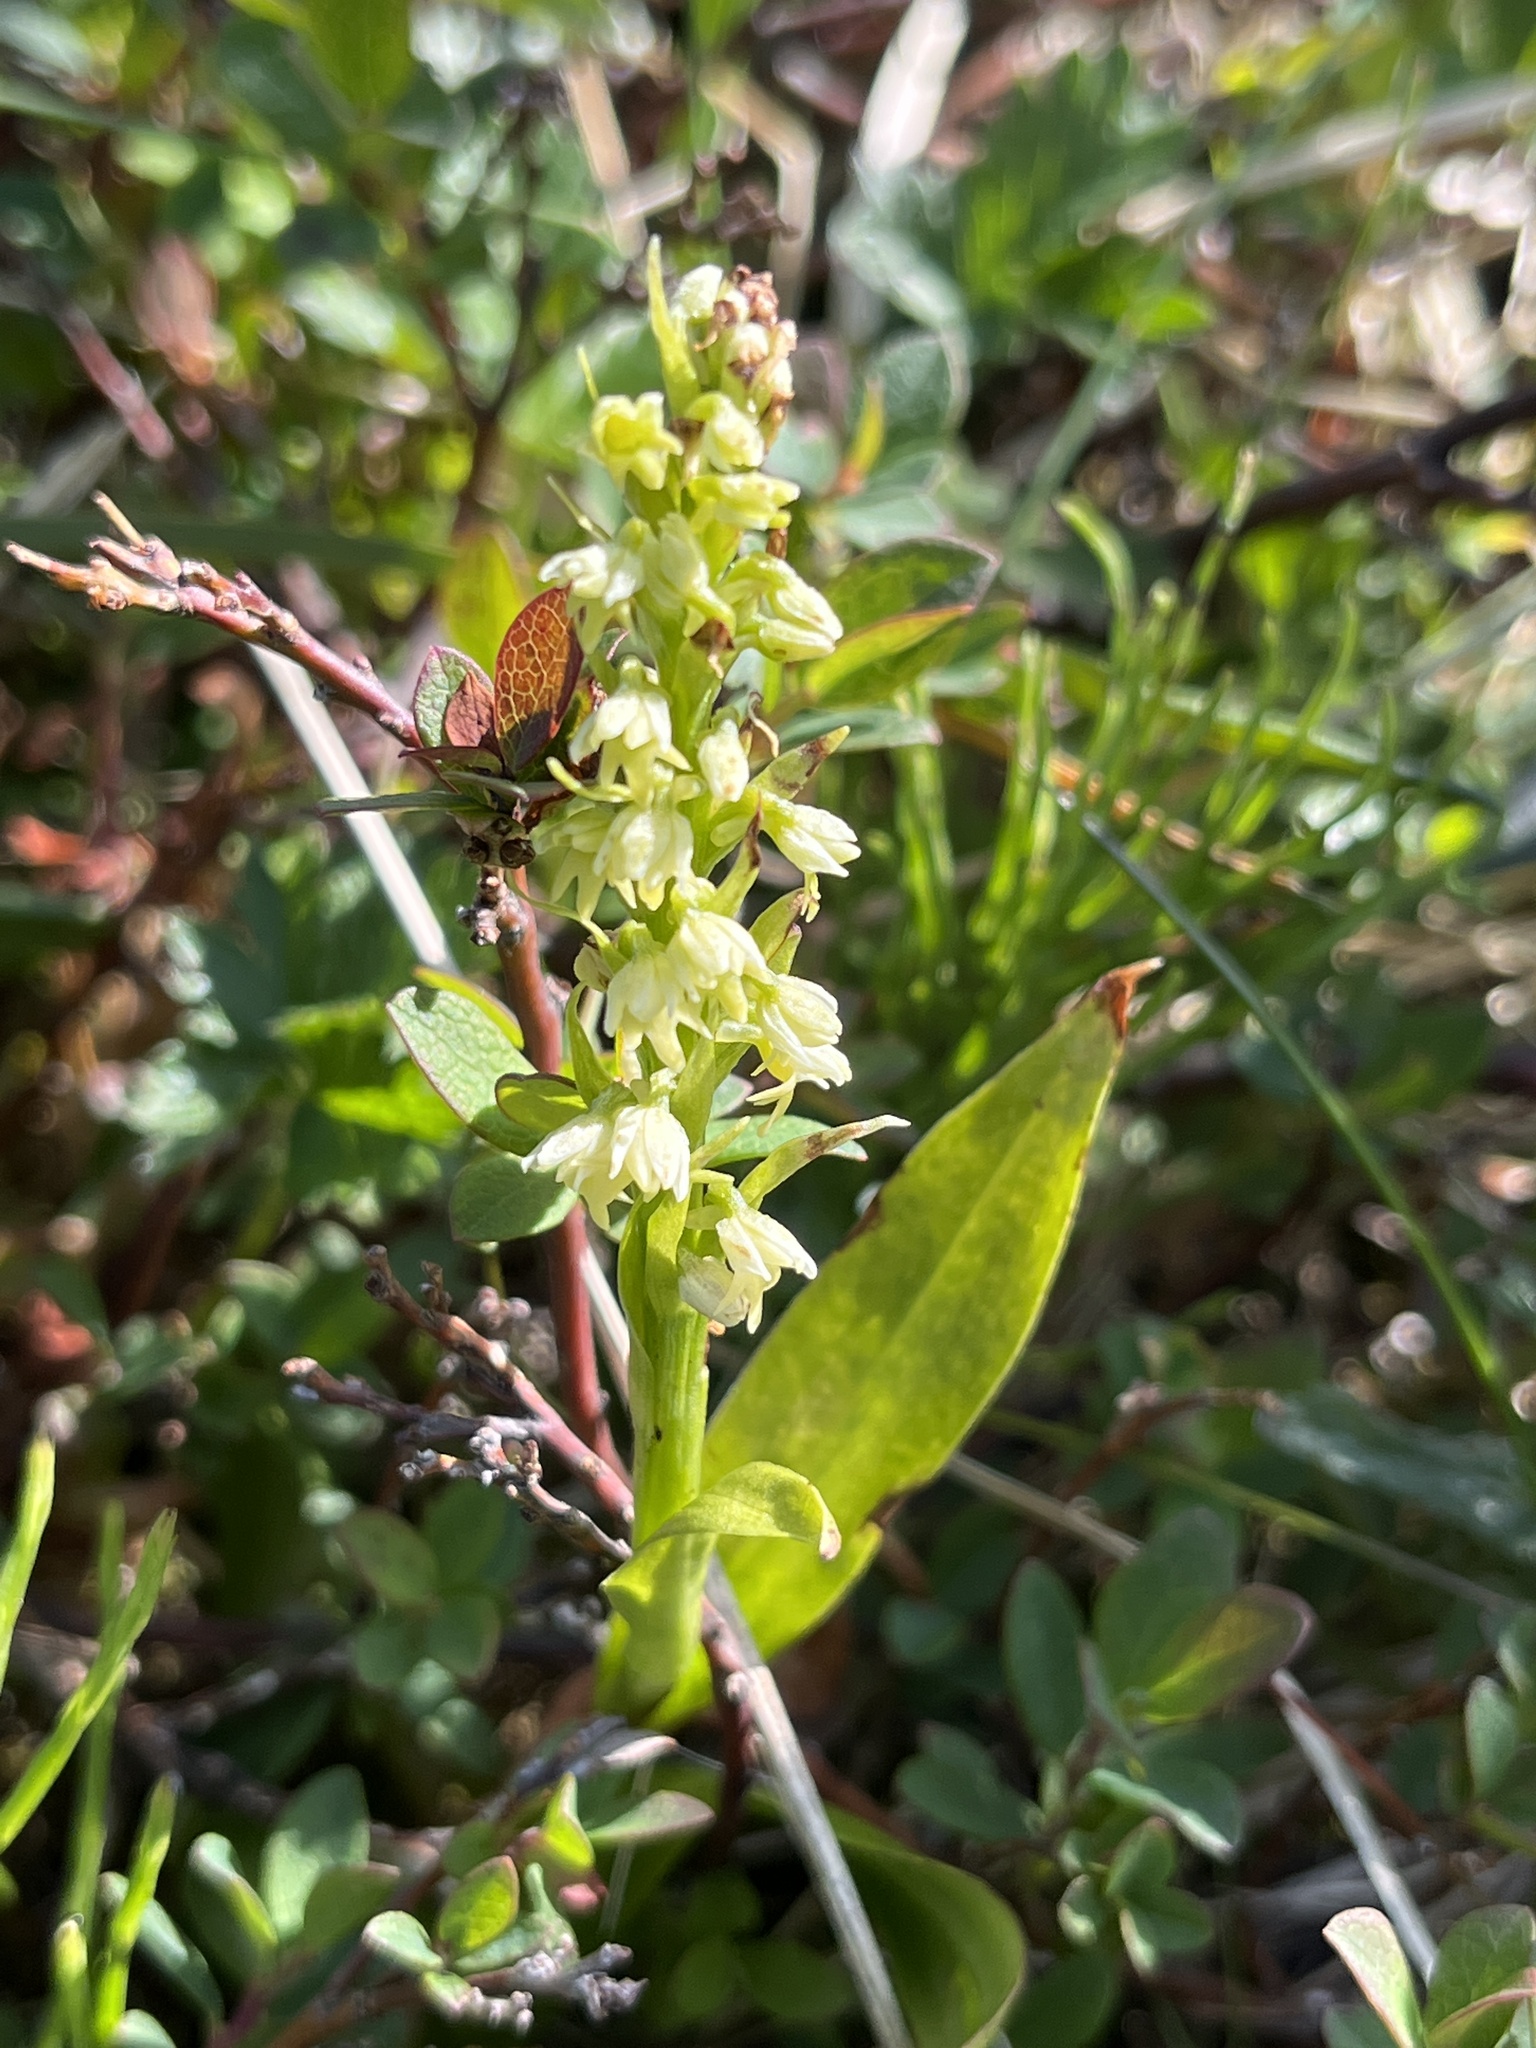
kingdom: Plantae
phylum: Tracheophyta
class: Liliopsida
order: Asparagales
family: Orchidaceae
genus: Pseudorchis
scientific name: Pseudorchis straminea
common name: Vanilla-scented bog orchid
